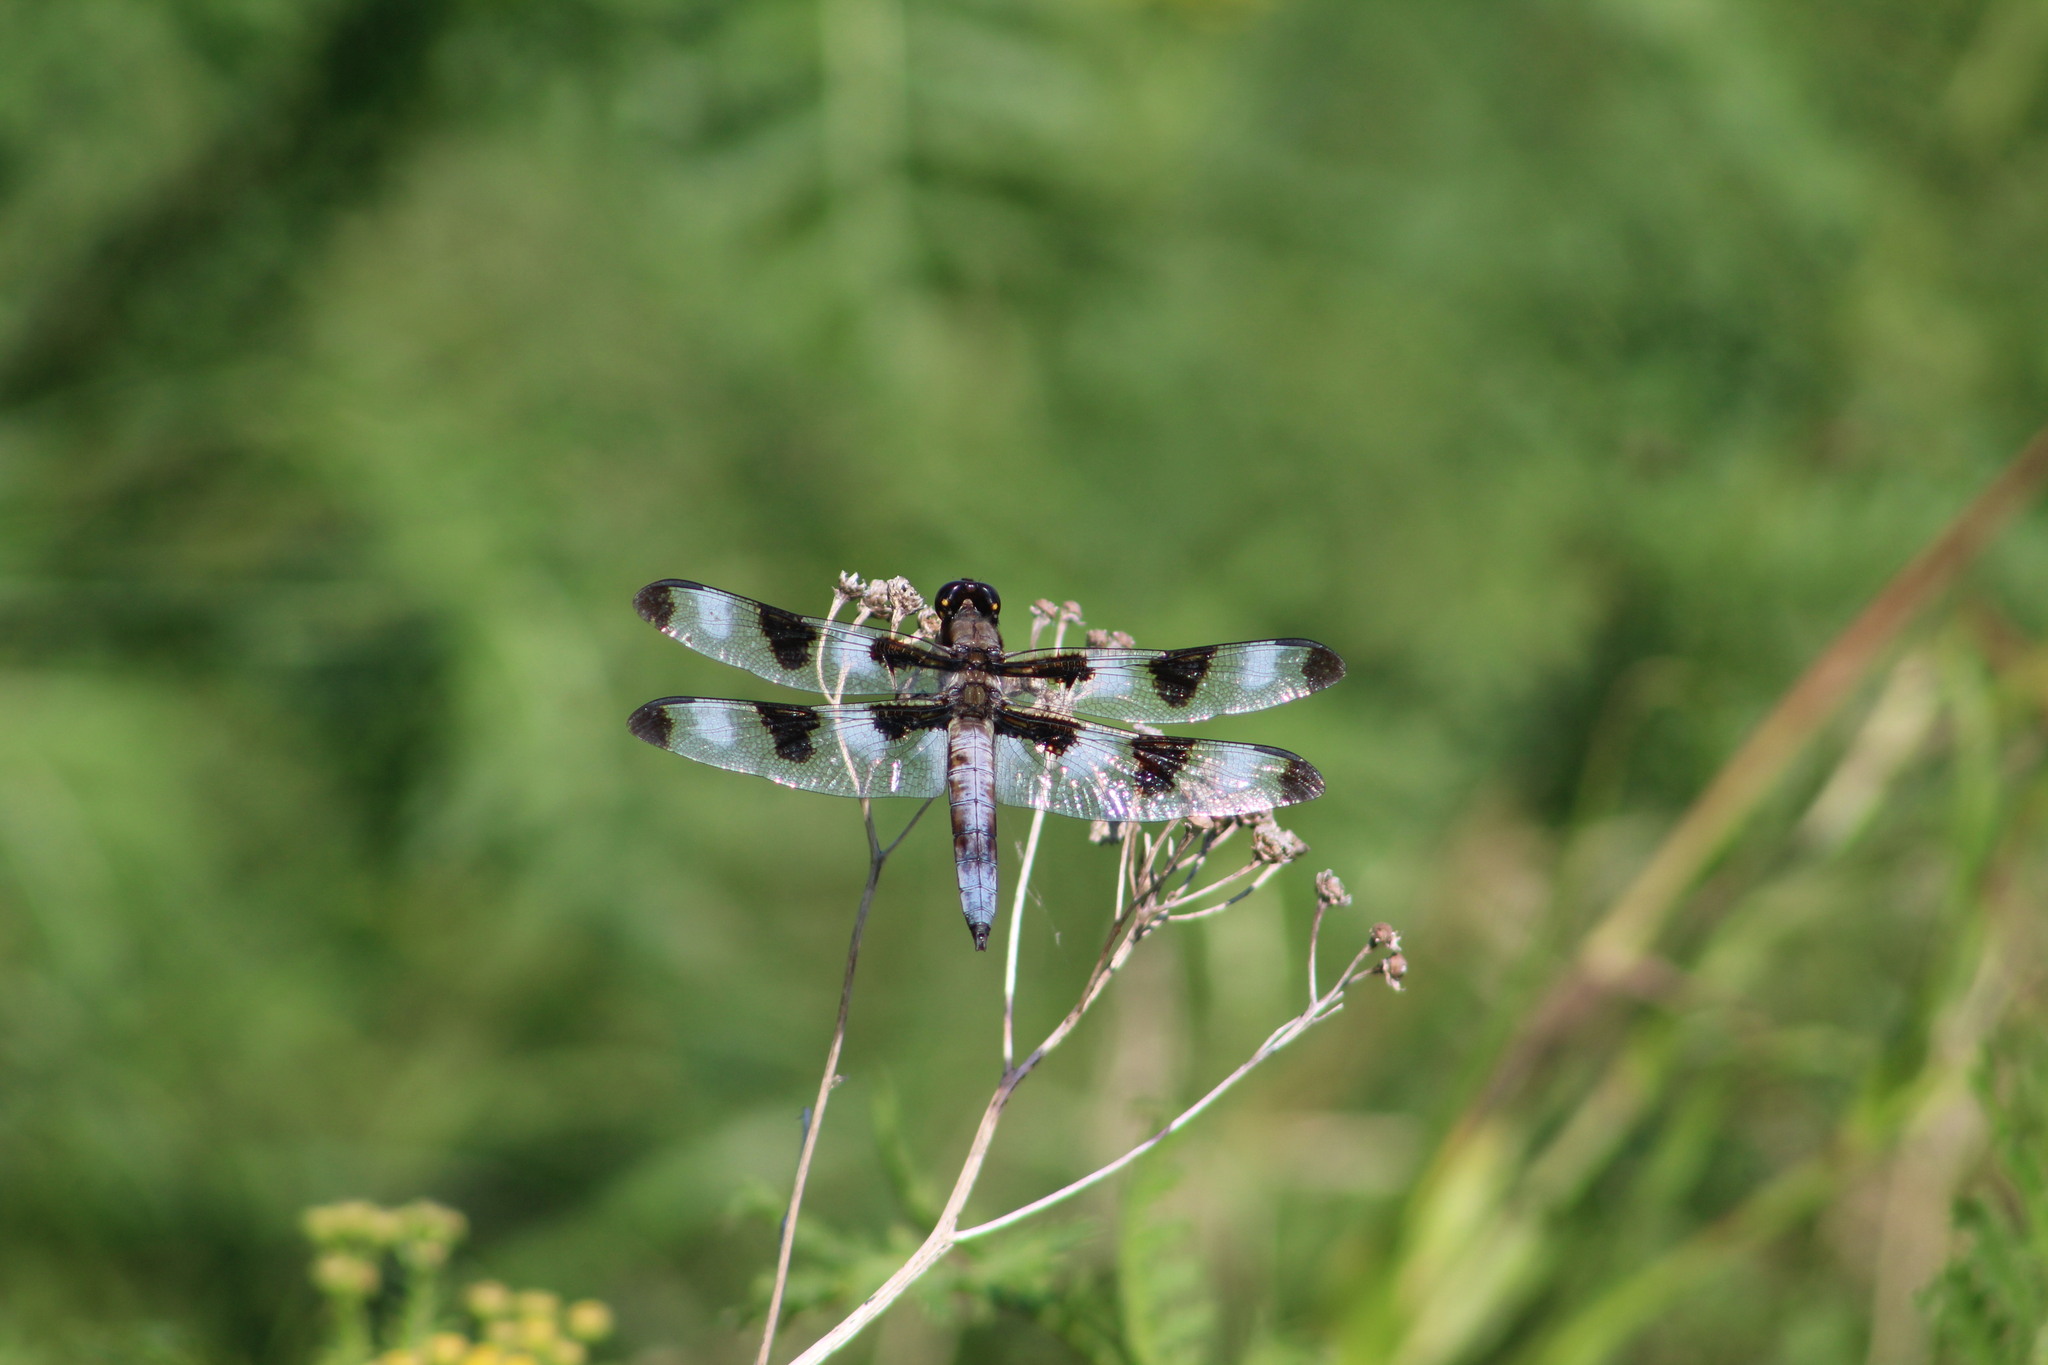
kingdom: Animalia
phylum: Arthropoda
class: Insecta
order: Odonata
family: Libellulidae
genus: Libellula
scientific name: Libellula pulchella
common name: Twelve-spotted skimmer
